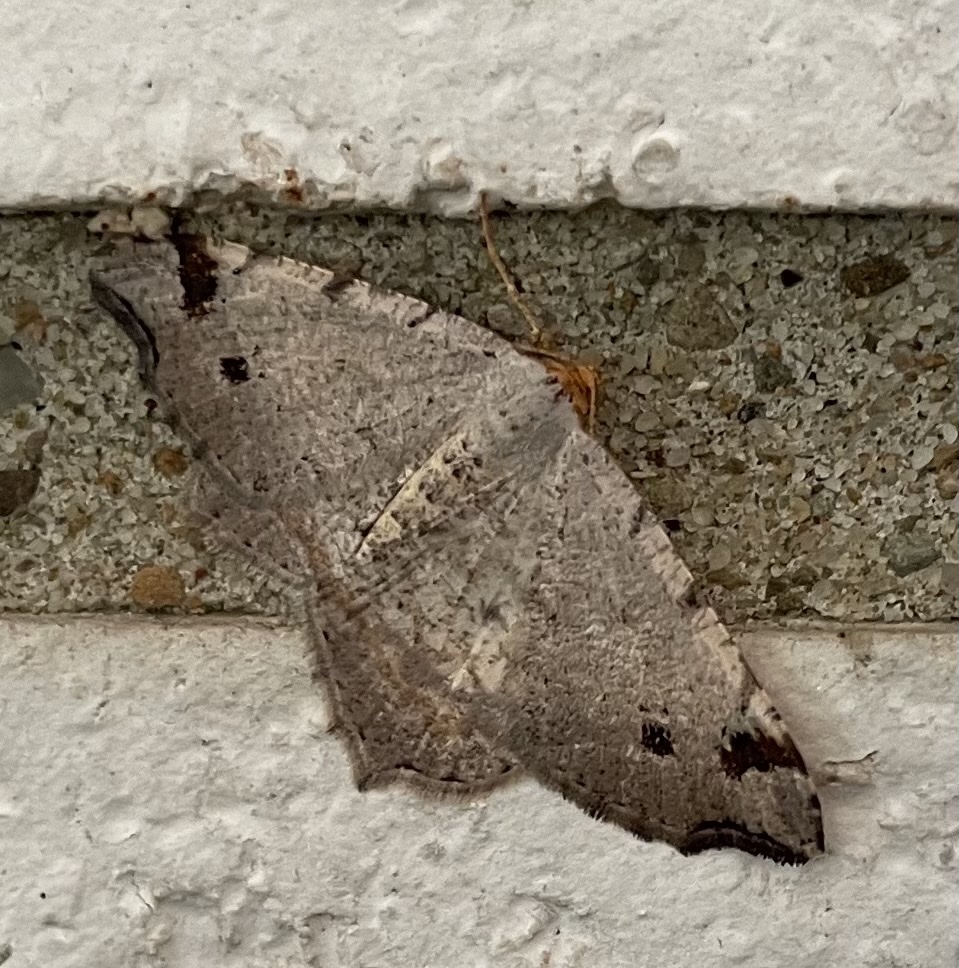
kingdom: Animalia
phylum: Arthropoda
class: Insecta
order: Lepidoptera
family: Geometridae
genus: Macaria
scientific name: Macaria bicolorata
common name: Dingy angle
